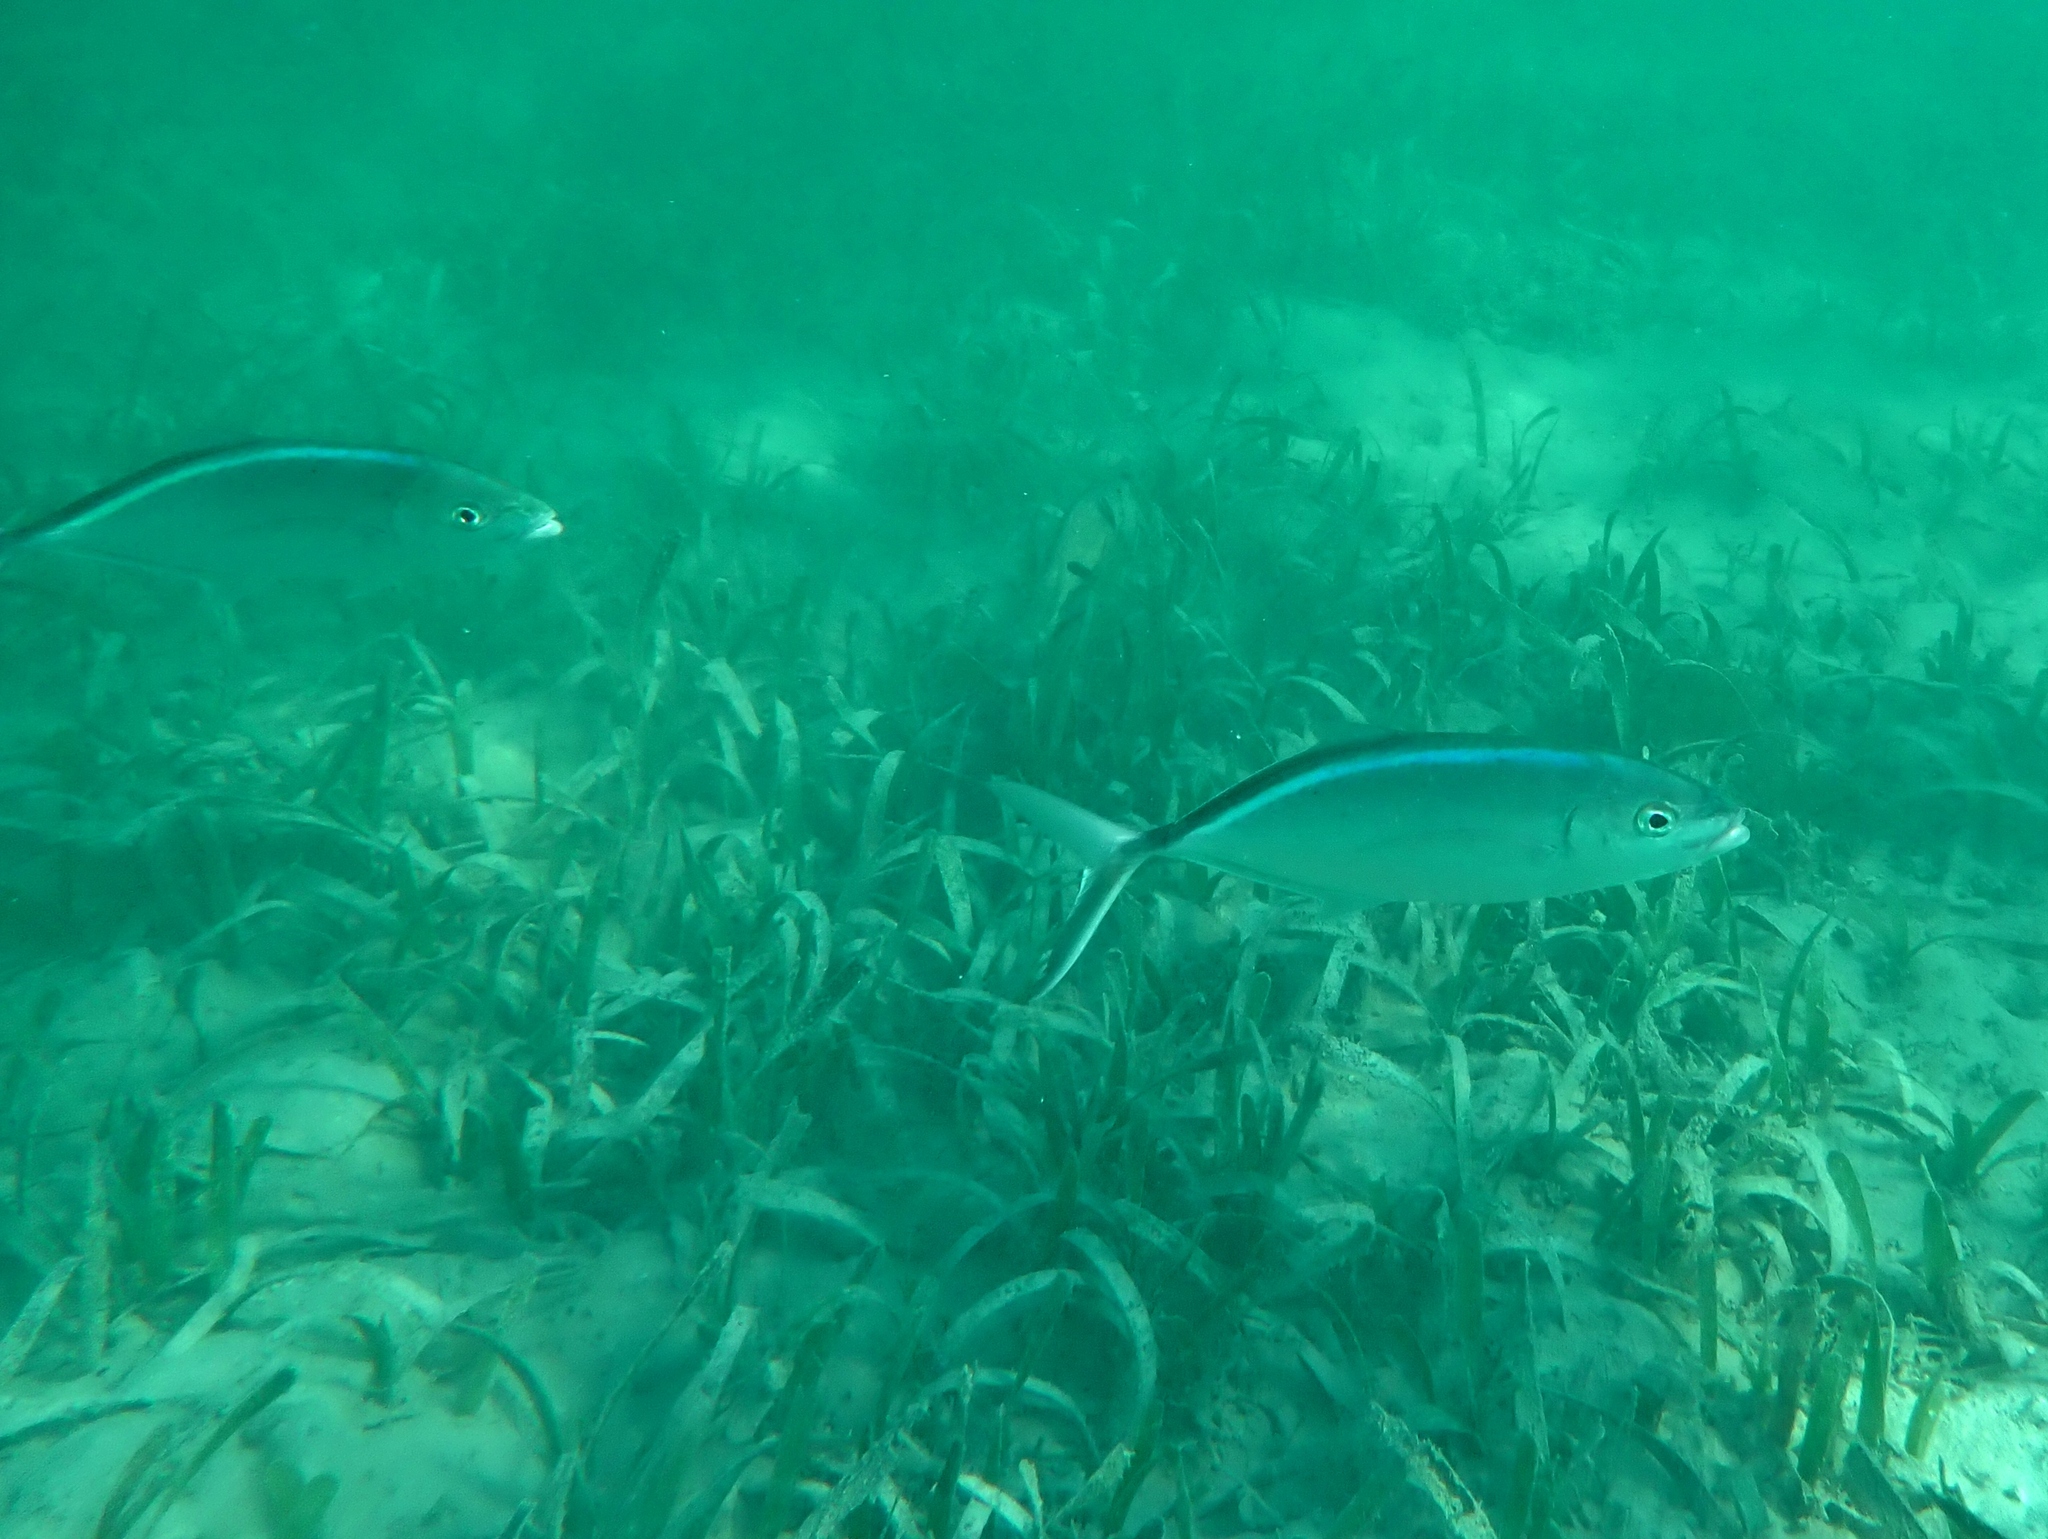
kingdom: Animalia
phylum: Chordata
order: Perciformes
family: Carangidae
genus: Caranx
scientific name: Caranx ruber
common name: Bar jack
